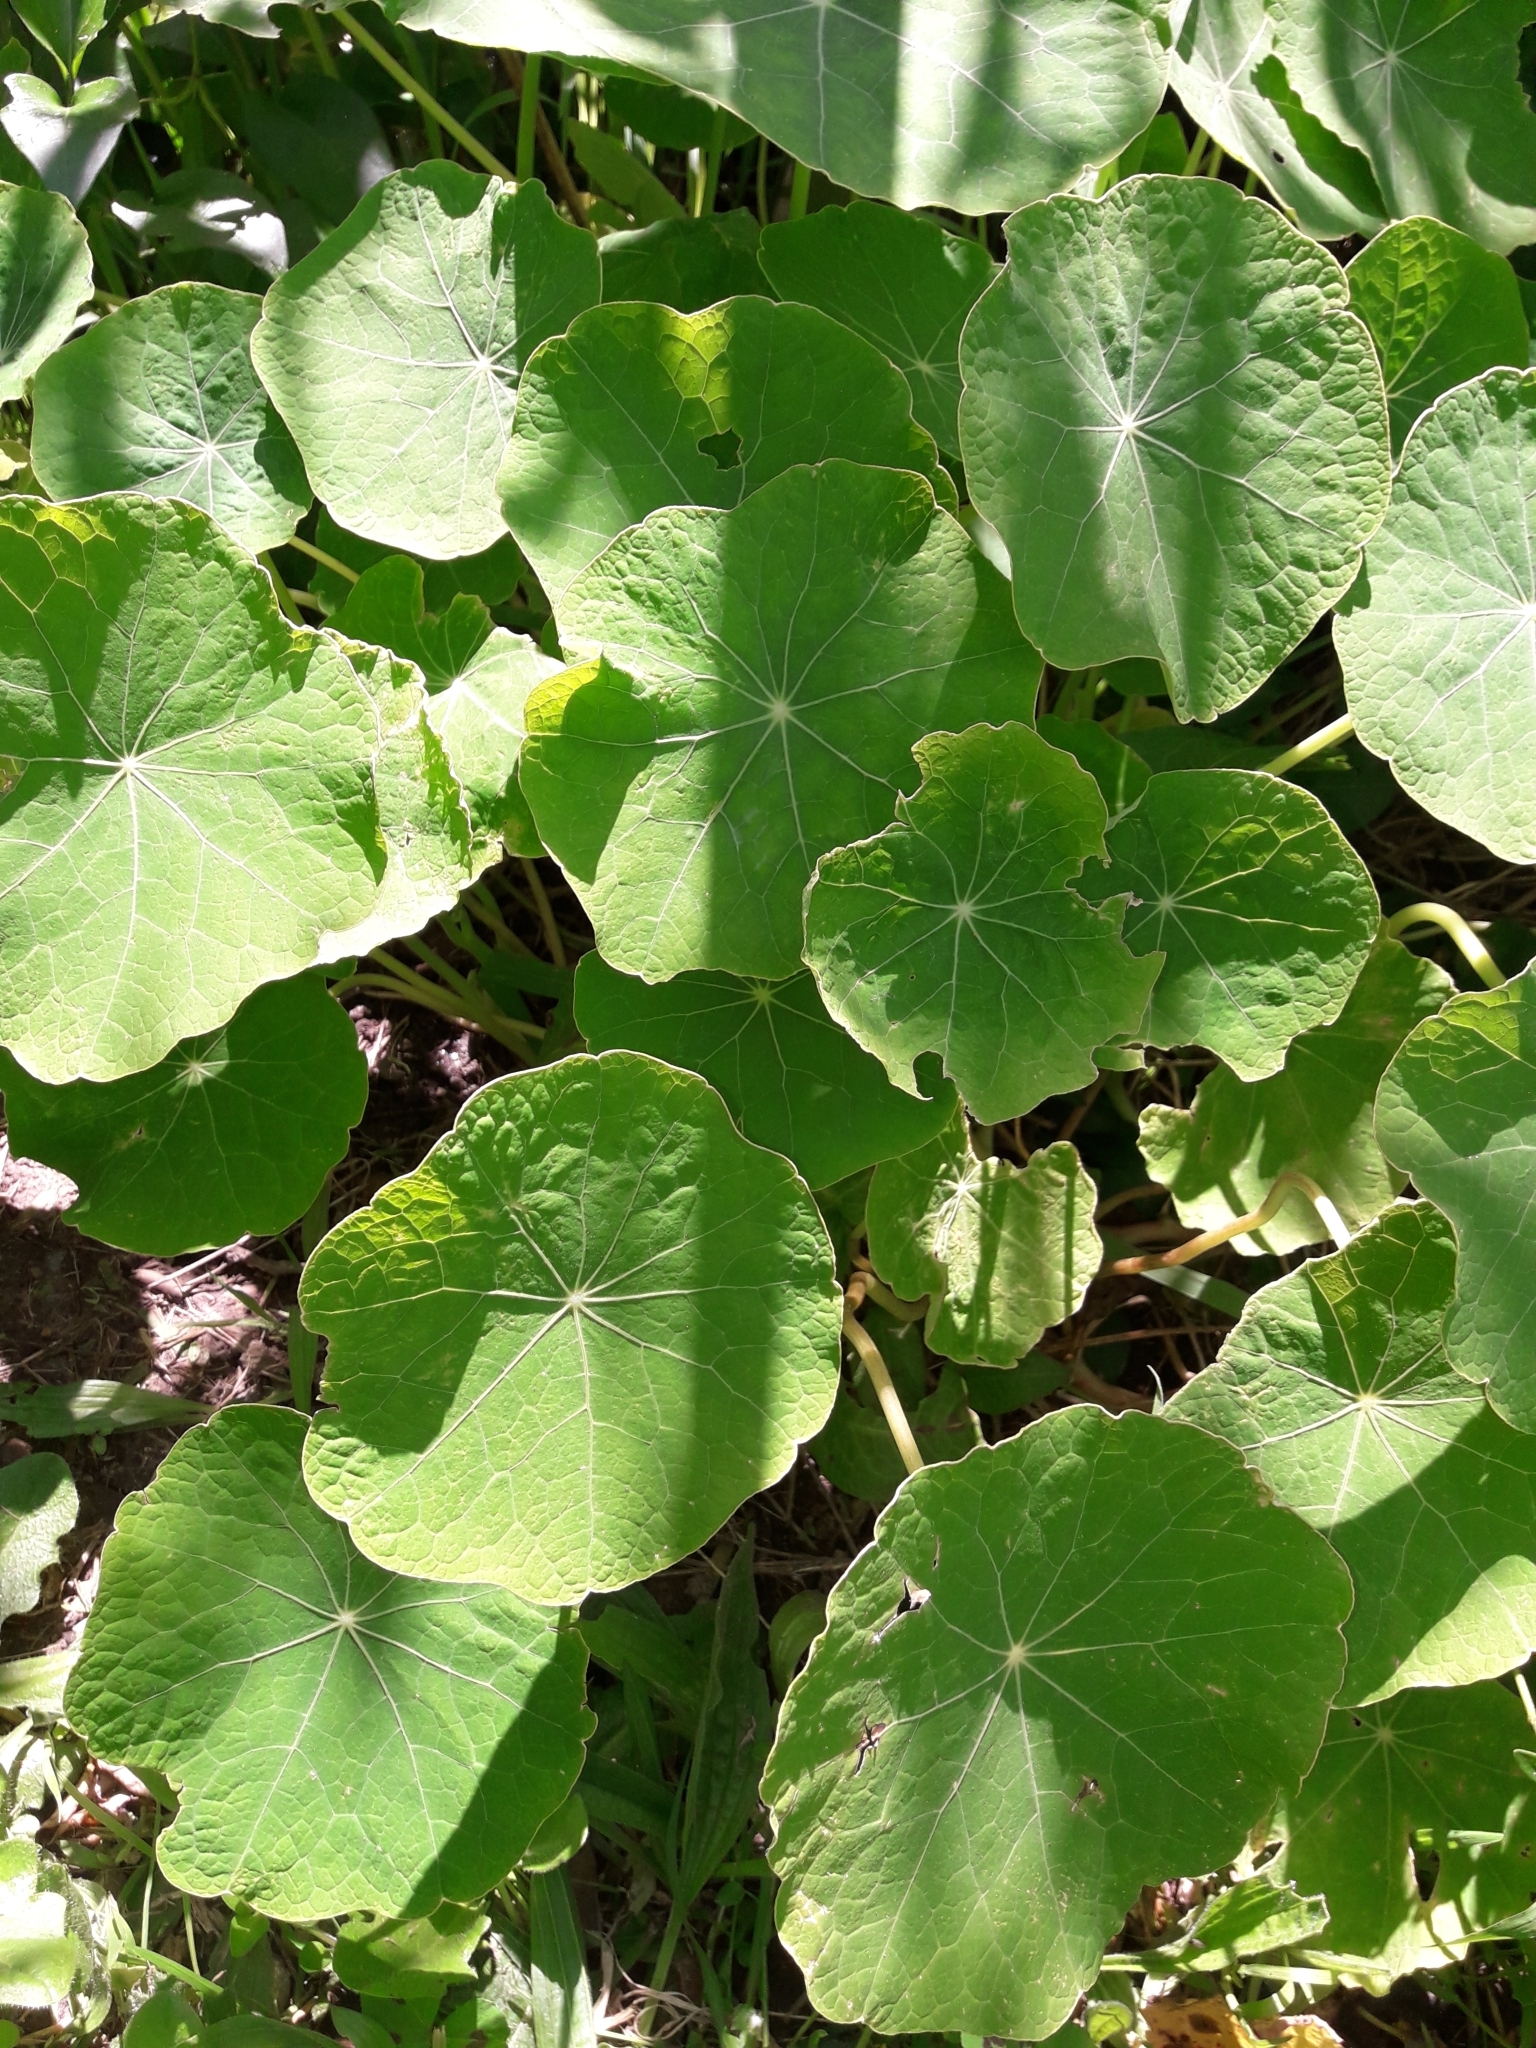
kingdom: Plantae
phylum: Tracheophyta
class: Magnoliopsida
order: Brassicales
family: Tropaeolaceae
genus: Tropaeolum
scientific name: Tropaeolum majus
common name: Nasturtium
